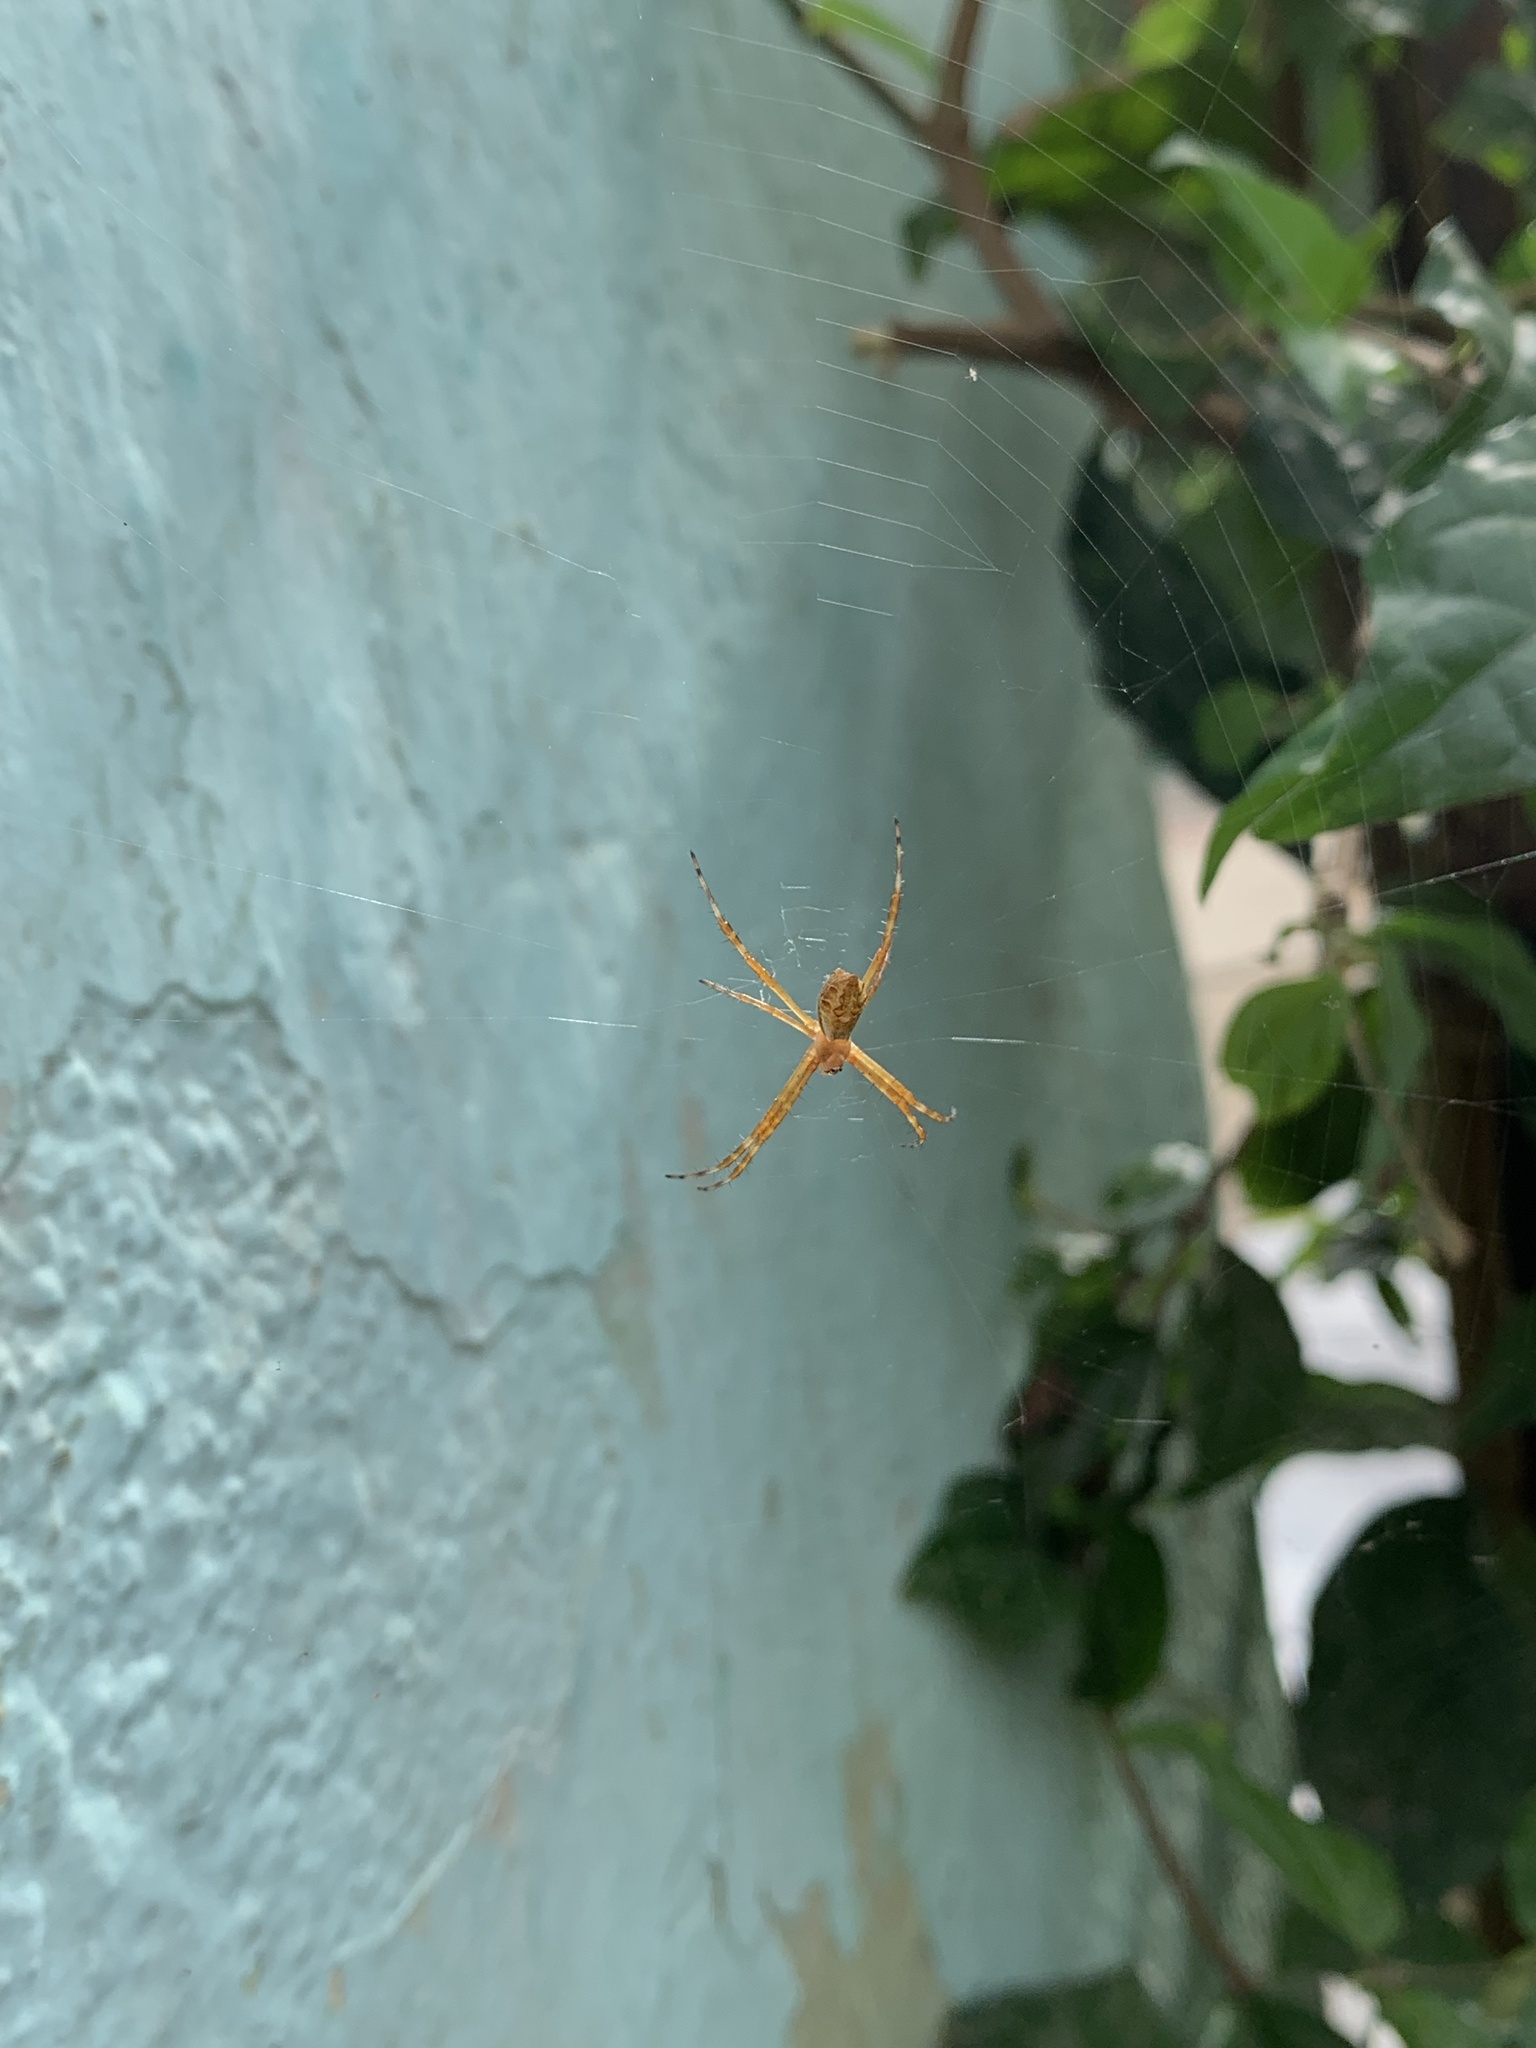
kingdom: Animalia
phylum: Arthropoda
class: Arachnida
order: Araneae
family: Araneidae
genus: Argiope
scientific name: Argiope argentata
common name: Orb weavers
